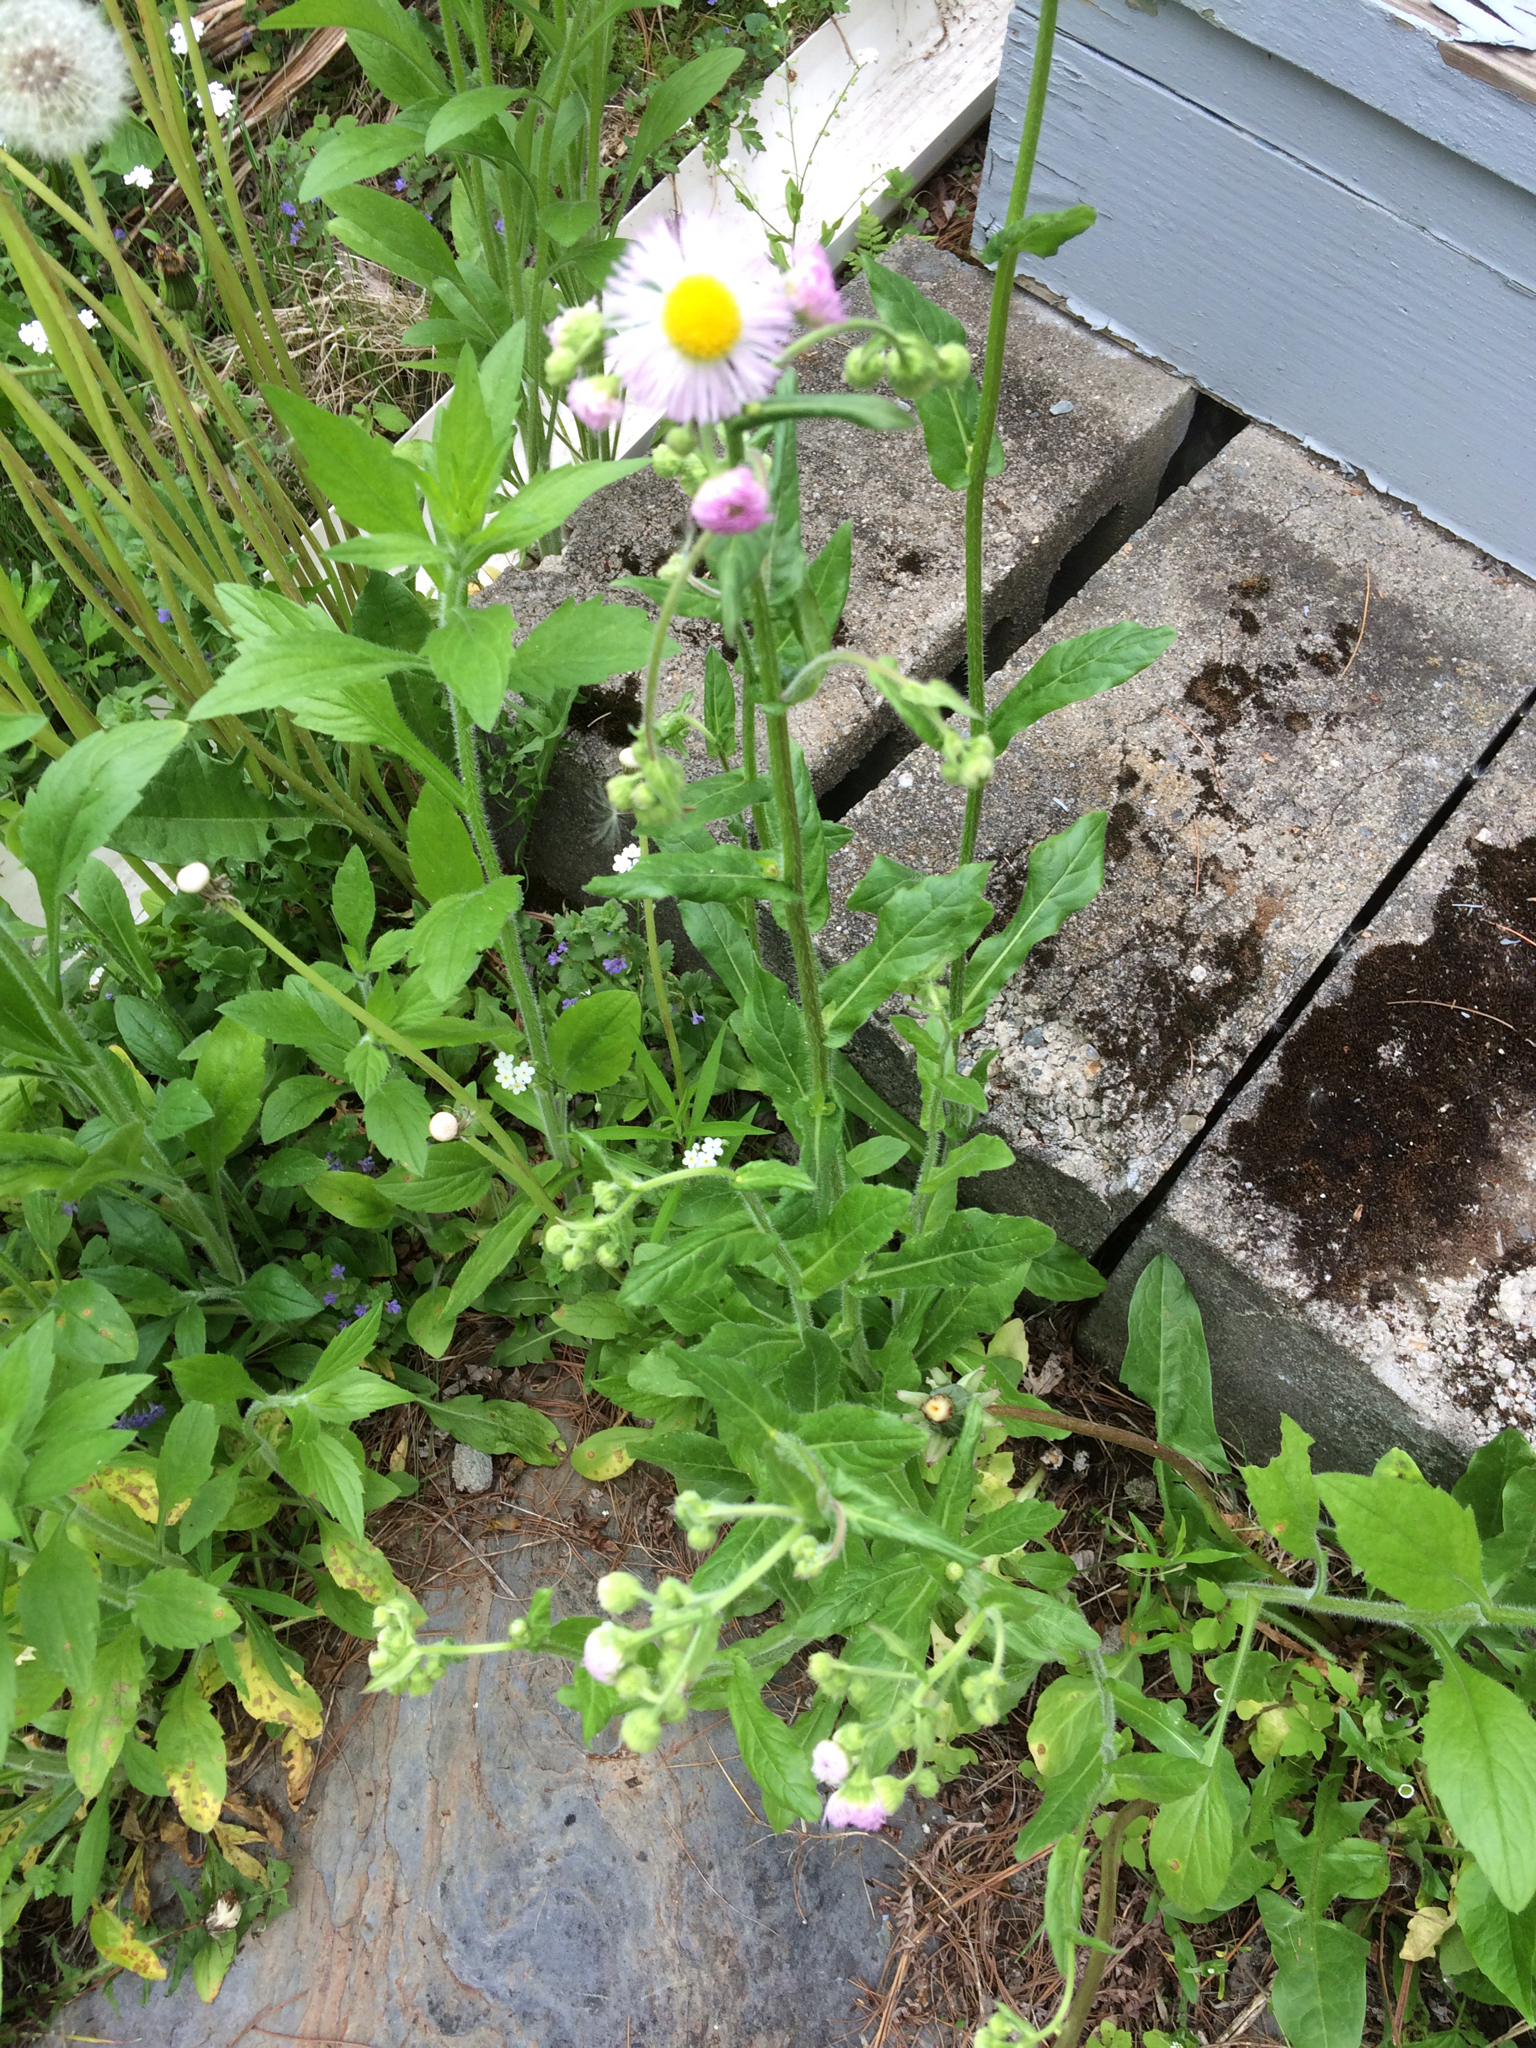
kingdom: Plantae
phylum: Tracheophyta
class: Magnoliopsida
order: Asterales
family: Asteraceae
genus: Erigeron
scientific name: Erigeron philadelphicus
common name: Robin's-plantain
